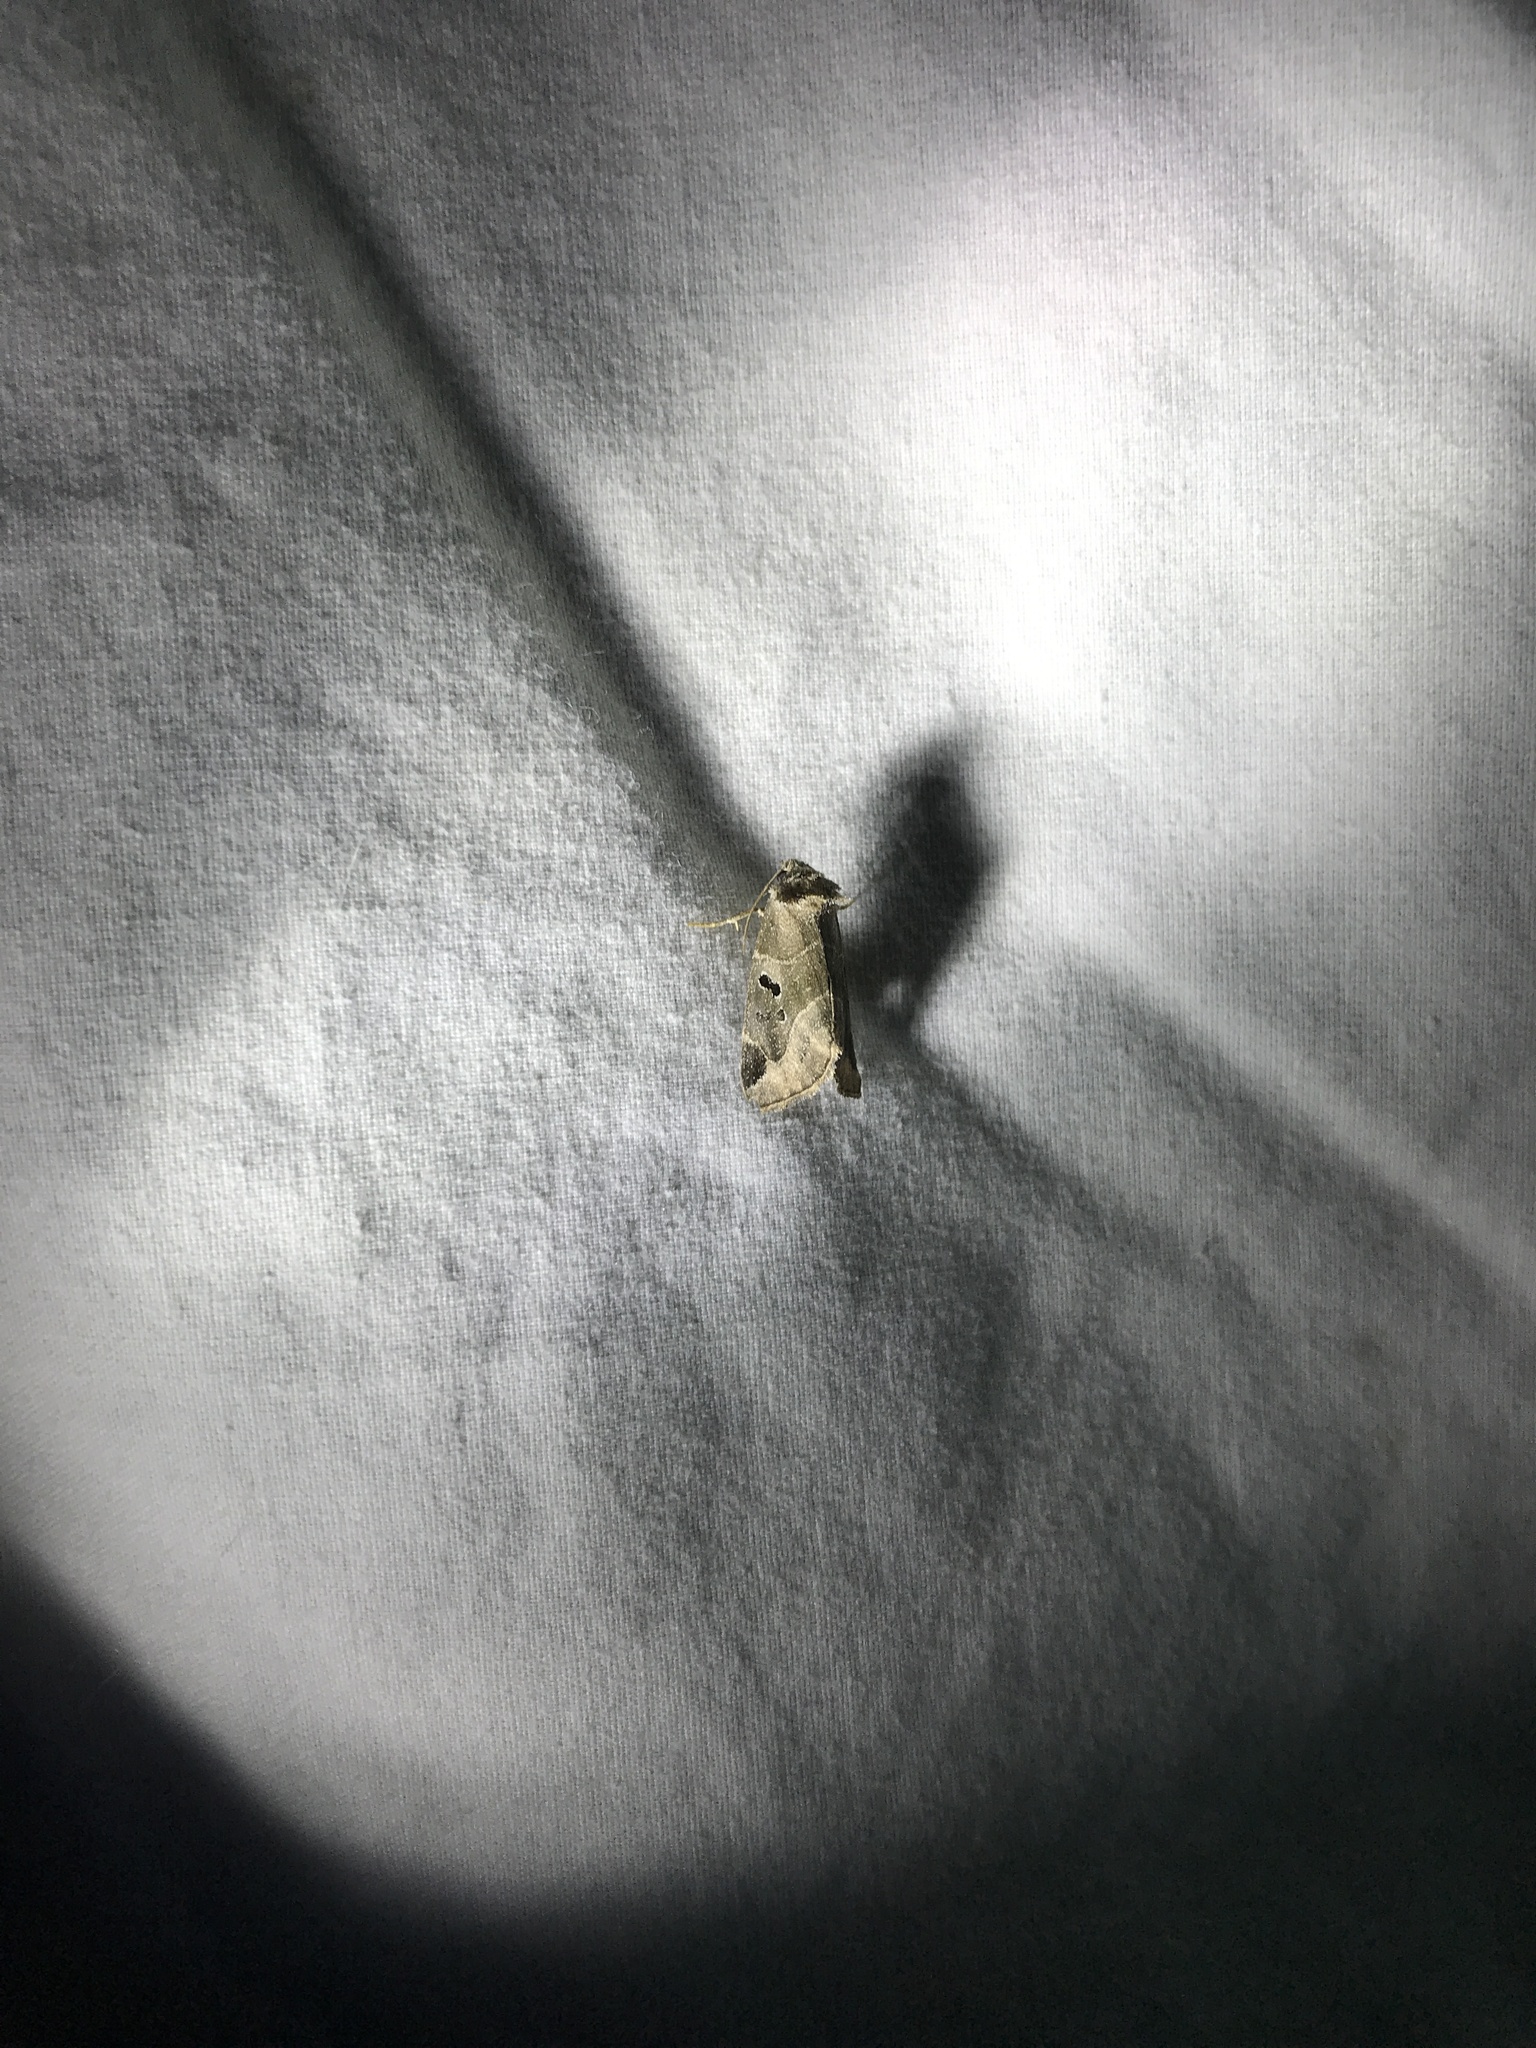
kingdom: Animalia
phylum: Arthropoda
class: Insecta
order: Lepidoptera
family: Noctuidae
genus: Plagiomimicus
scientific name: Plagiomimicus pityochromus
